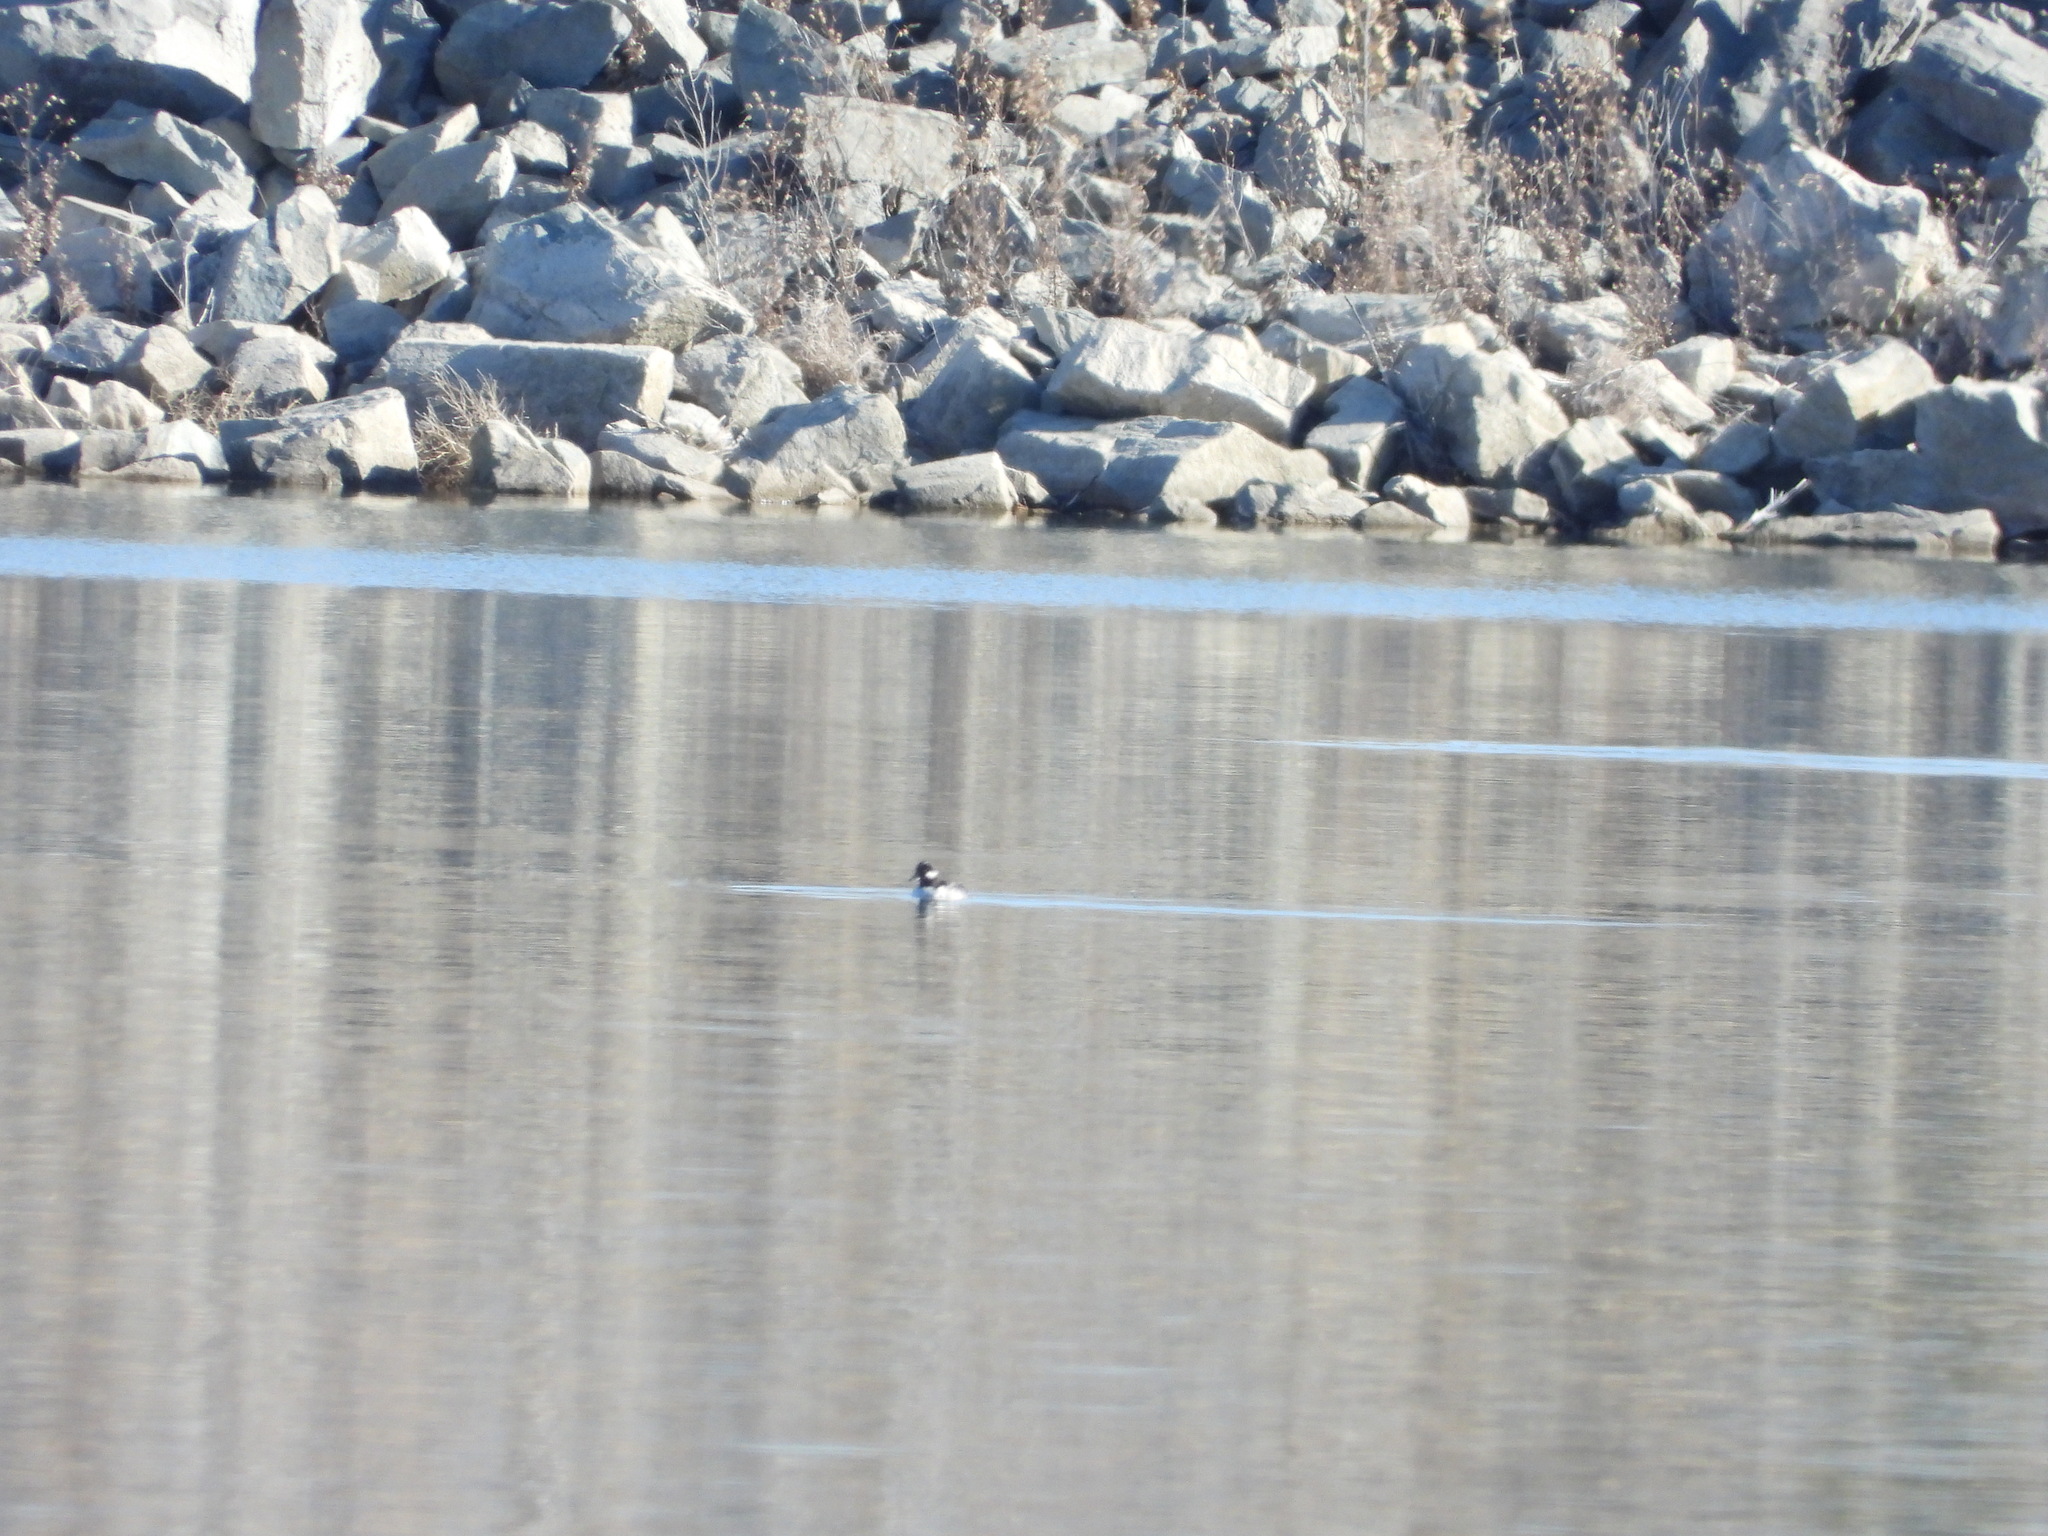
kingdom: Animalia
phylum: Chordata
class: Aves
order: Anseriformes
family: Anatidae
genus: Bucephala
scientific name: Bucephala albeola
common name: Bufflehead
